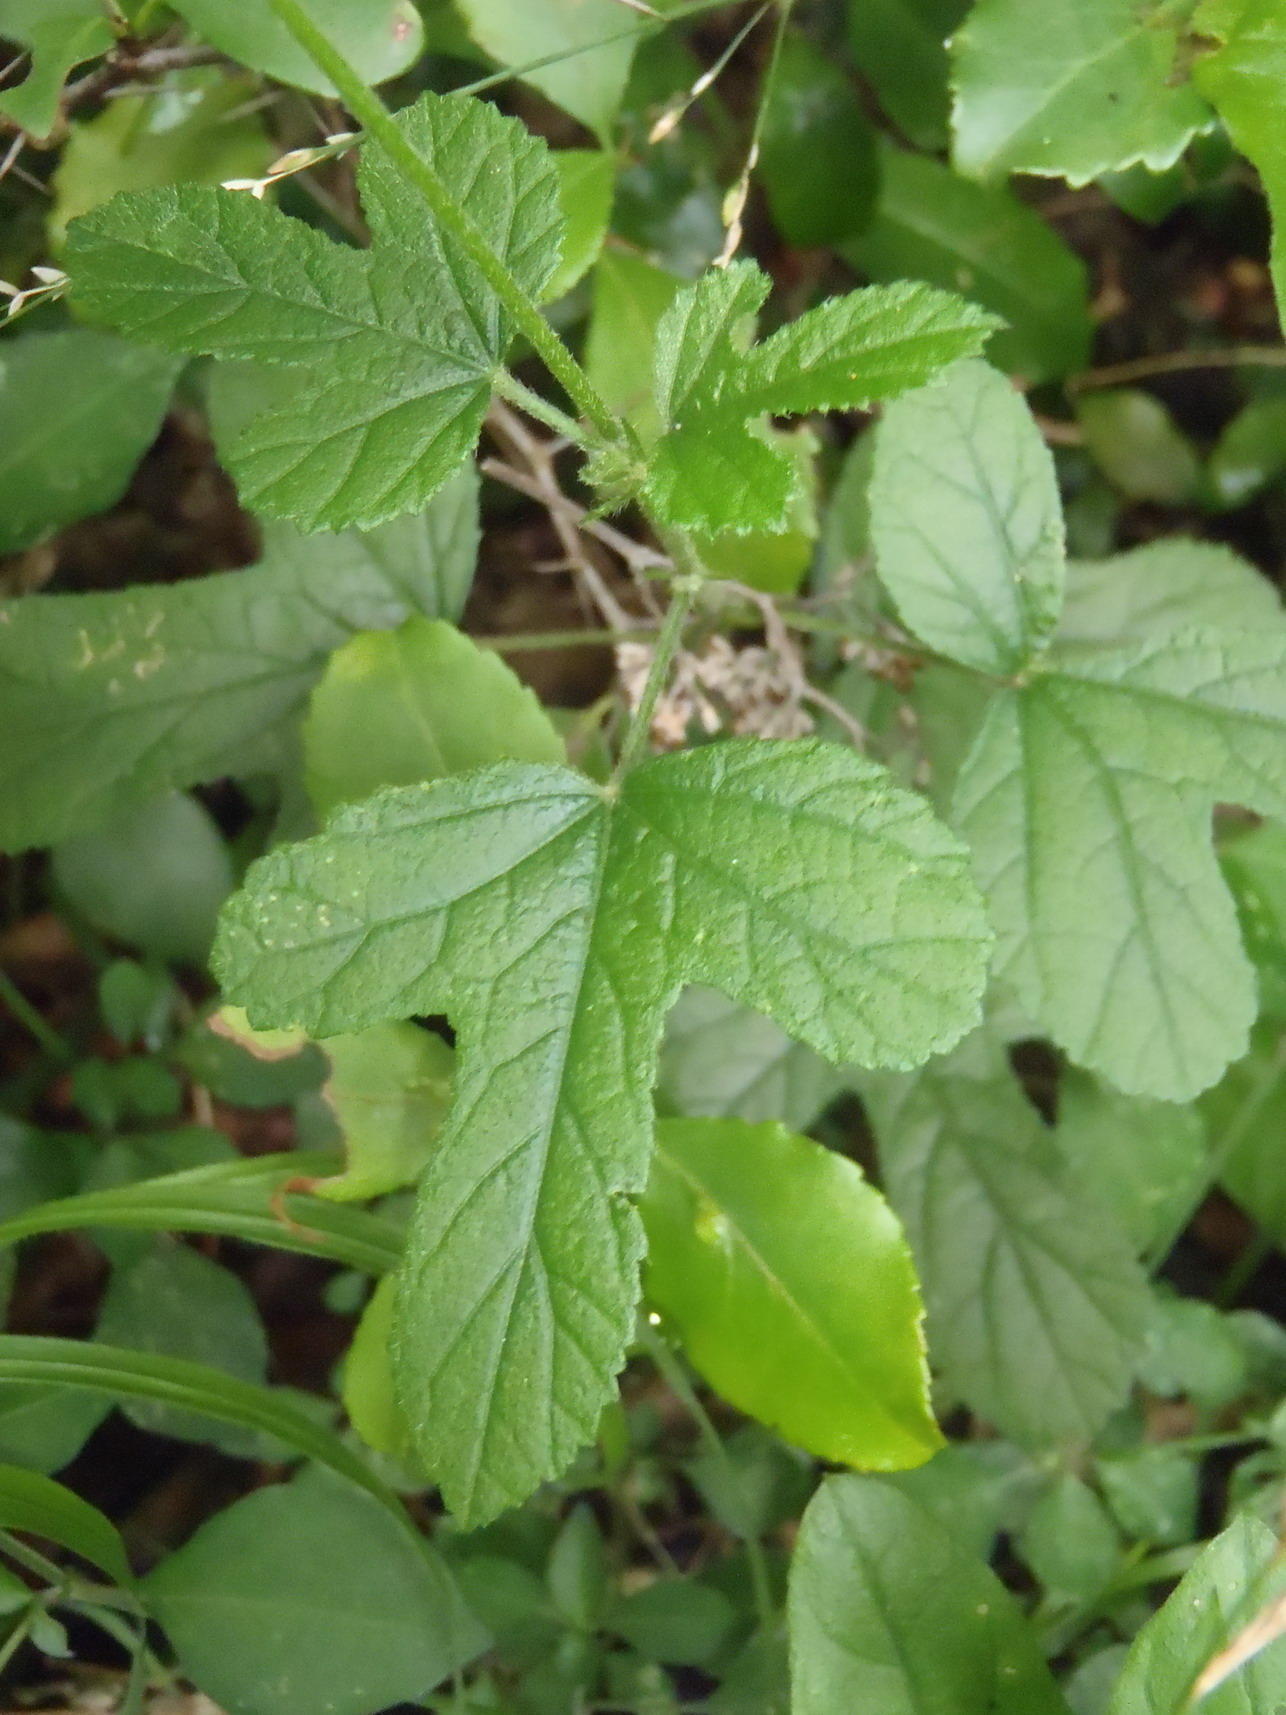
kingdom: Plantae
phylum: Tracheophyta
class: Magnoliopsida
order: Malvales
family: Malvaceae
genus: Hibiscus
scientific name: Hibiscus pedunculatus
